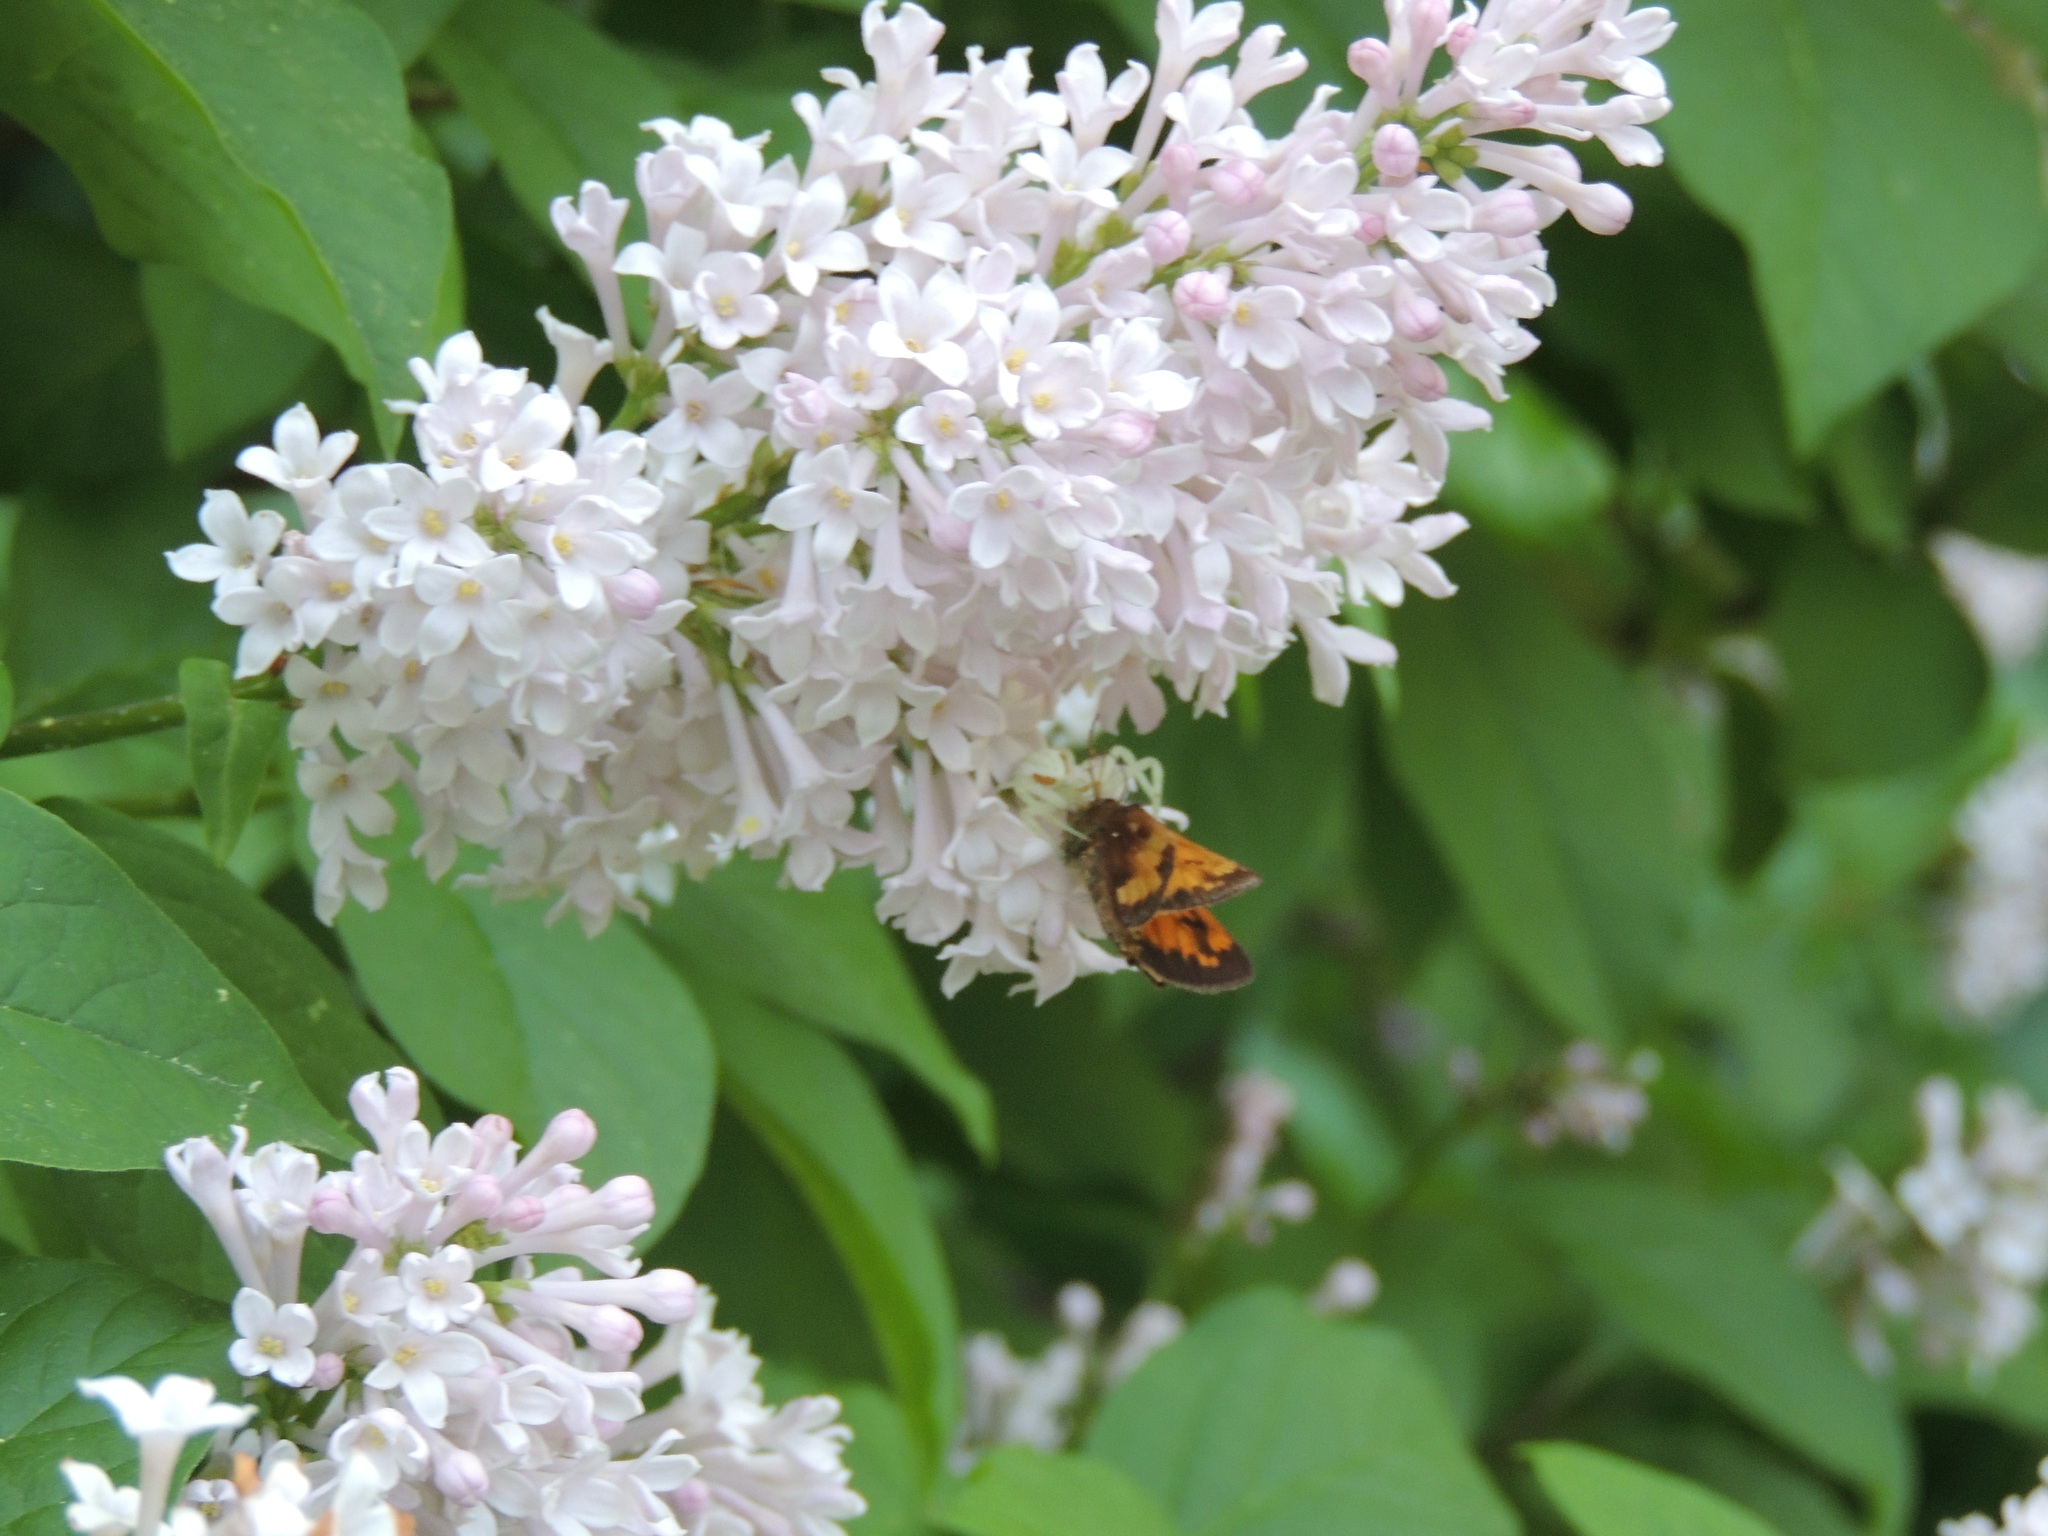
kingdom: Animalia
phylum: Arthropoda
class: Arachnida
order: Araneae
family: Thomisidae
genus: Misumena
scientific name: Misumena vatia
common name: Goldenrod crab spider
